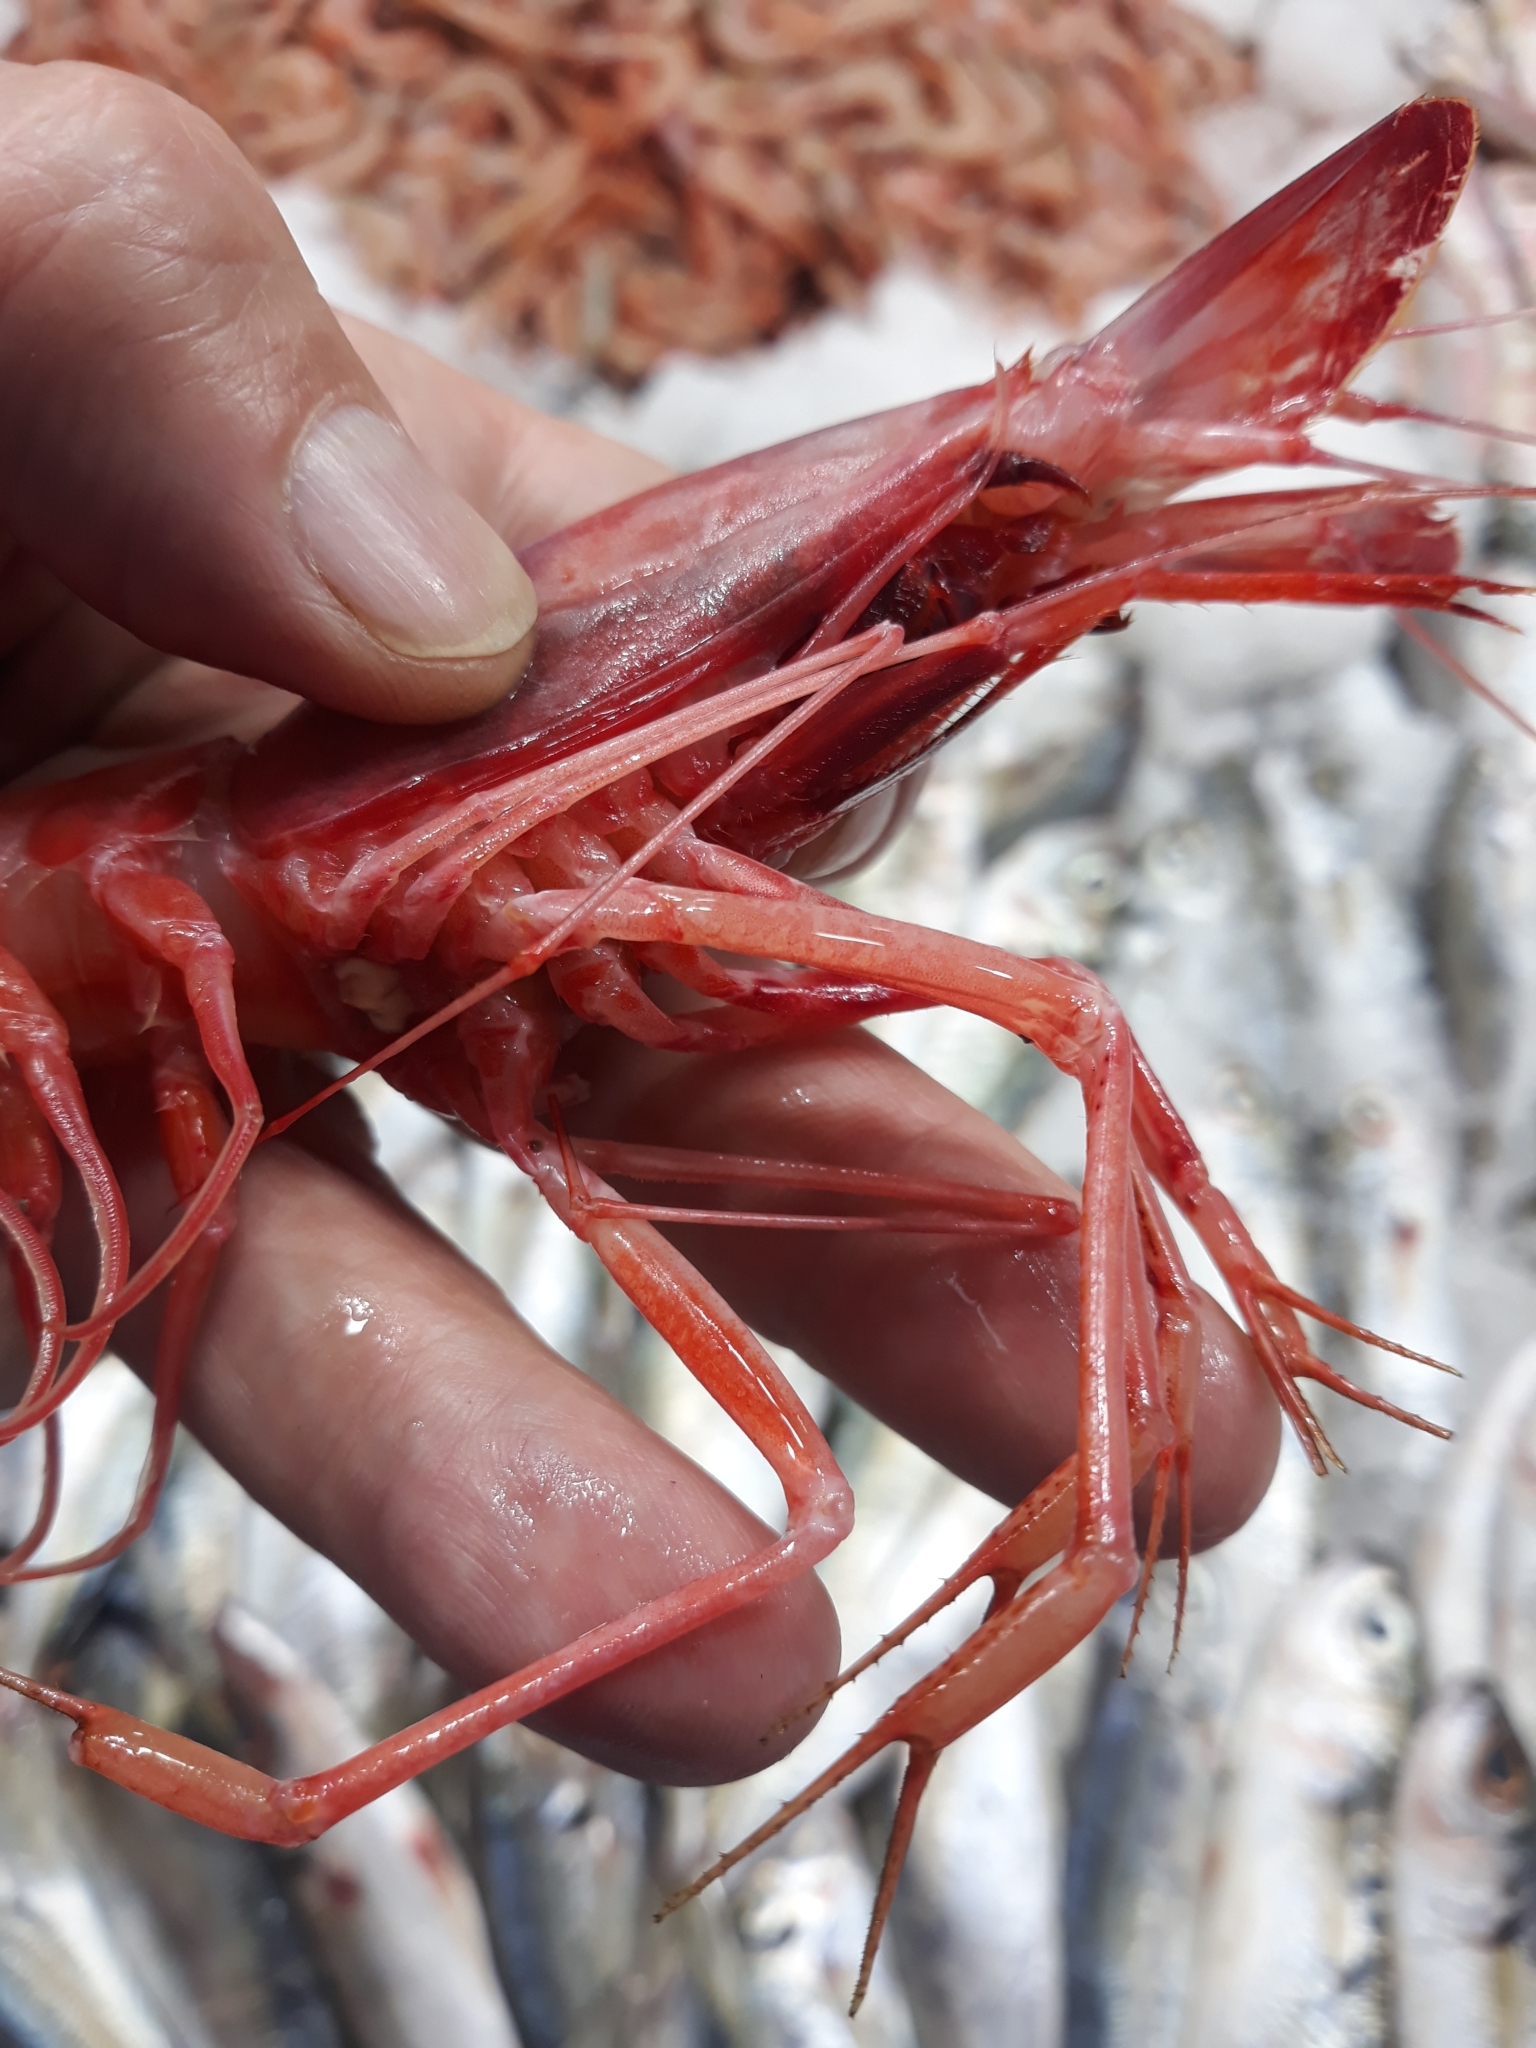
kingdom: Animalia
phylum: Arthropoda
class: Malacostraca
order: Decapoda
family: Aristeidae
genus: Aristeus
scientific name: Aristeus antennatus
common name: Blue and red shrimp
